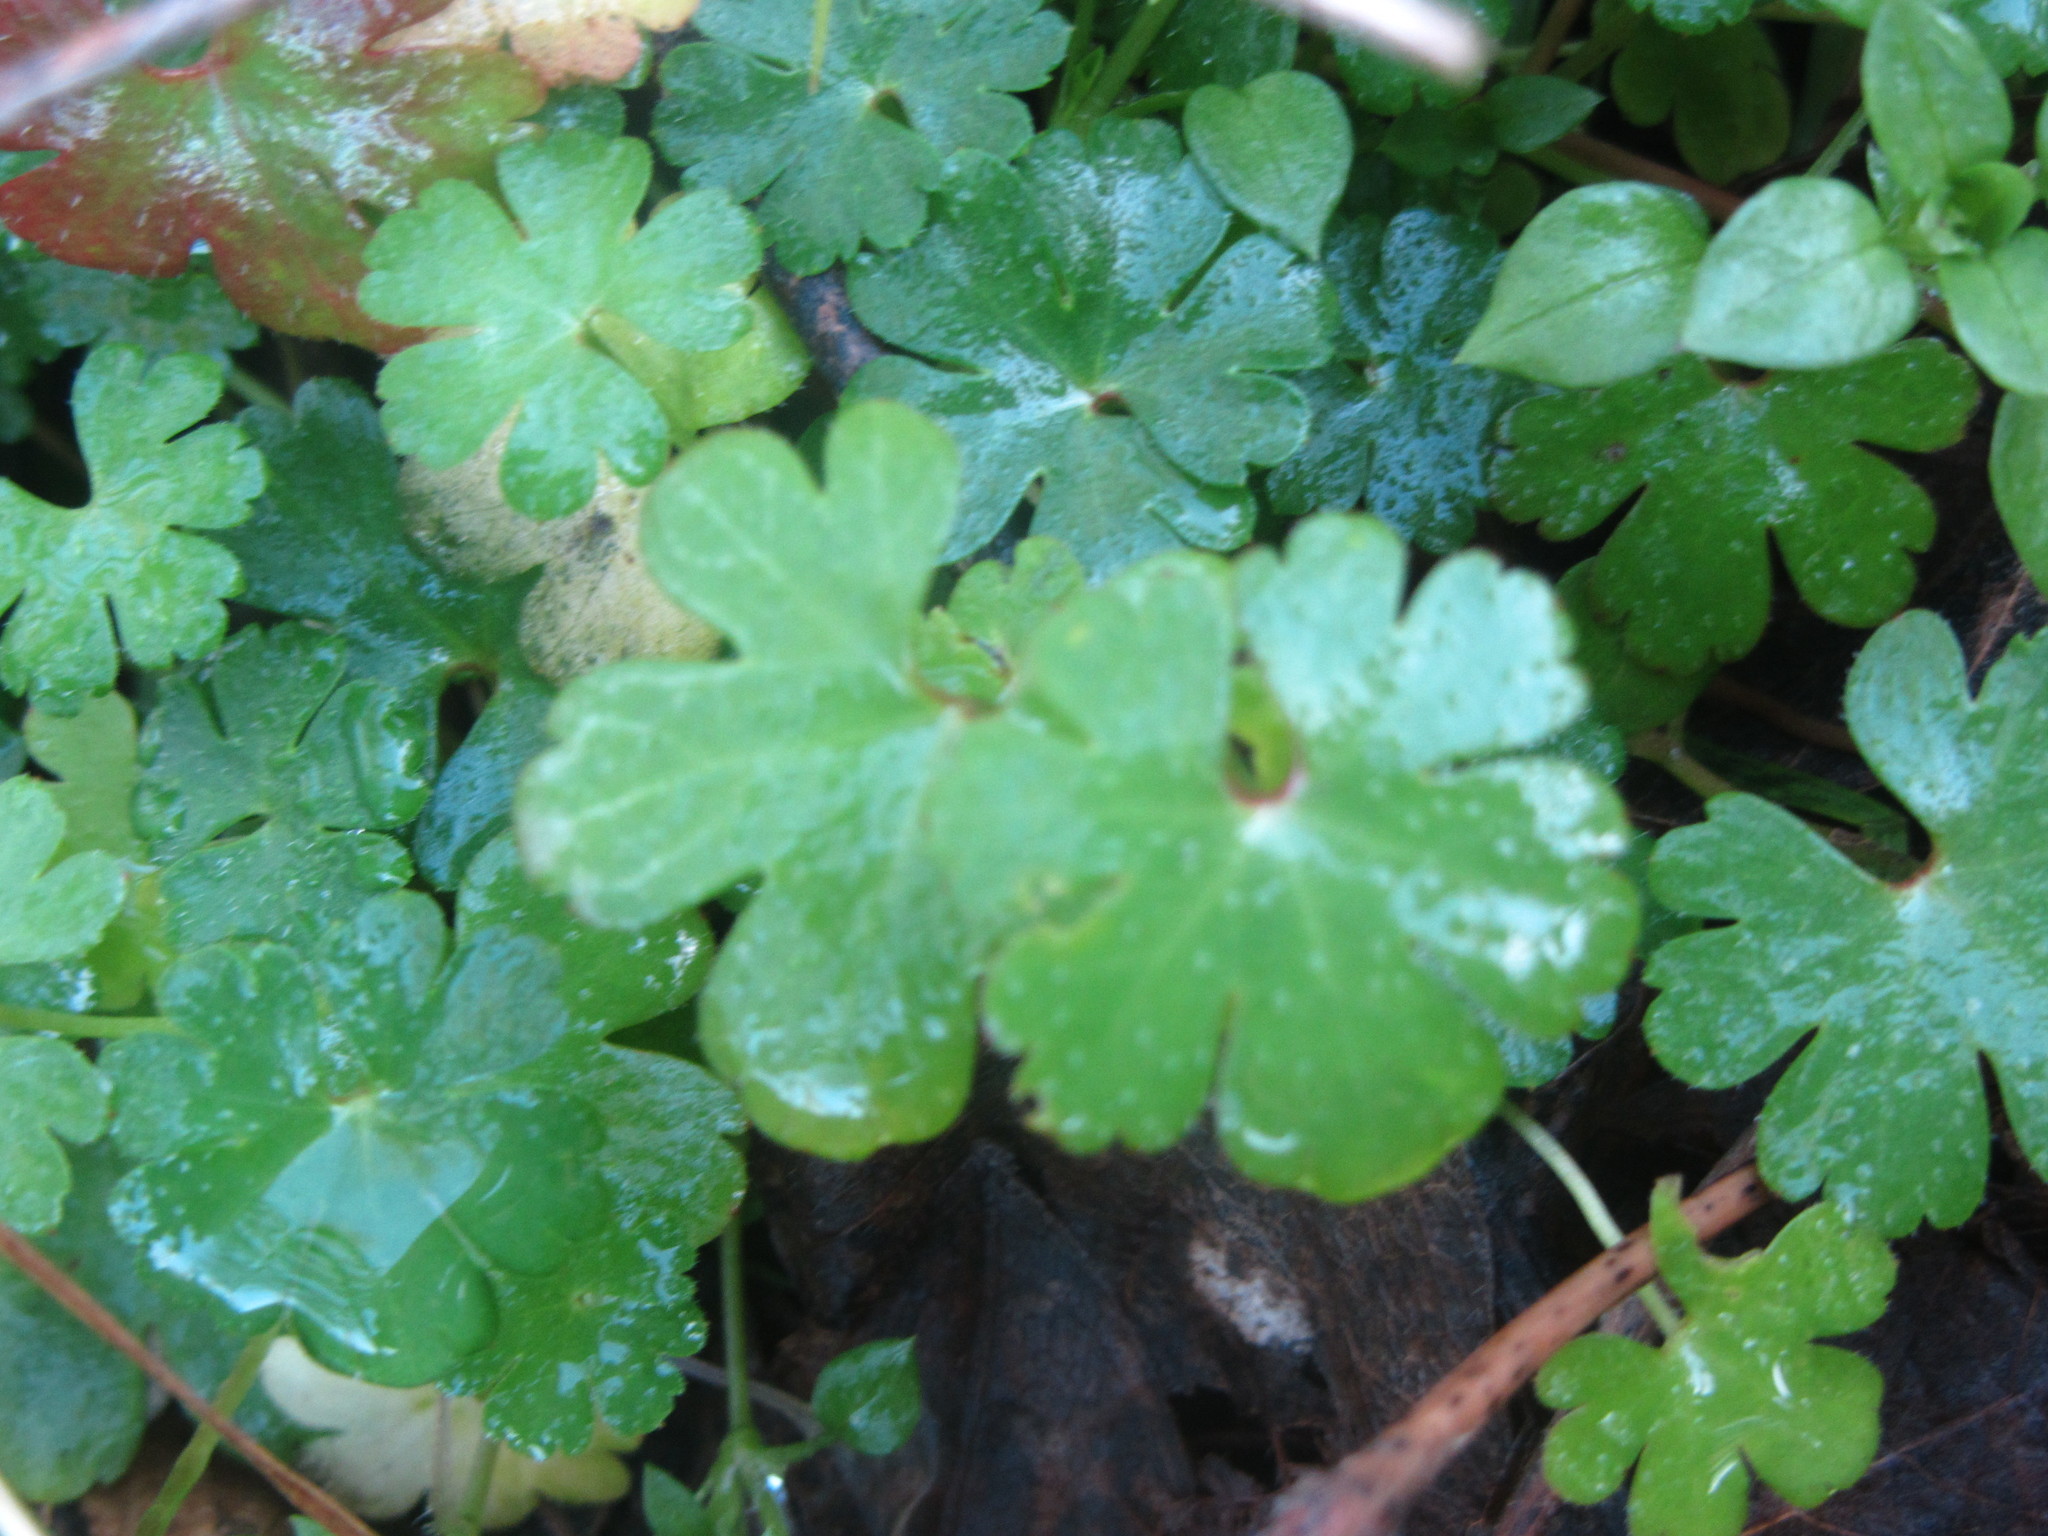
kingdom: Plantae
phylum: Tracheophyta
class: Magnoliopsida
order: Geraniales
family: Geraniaceae
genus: Geranium
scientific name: Geranium lucidum
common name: Shining crane's-bill
